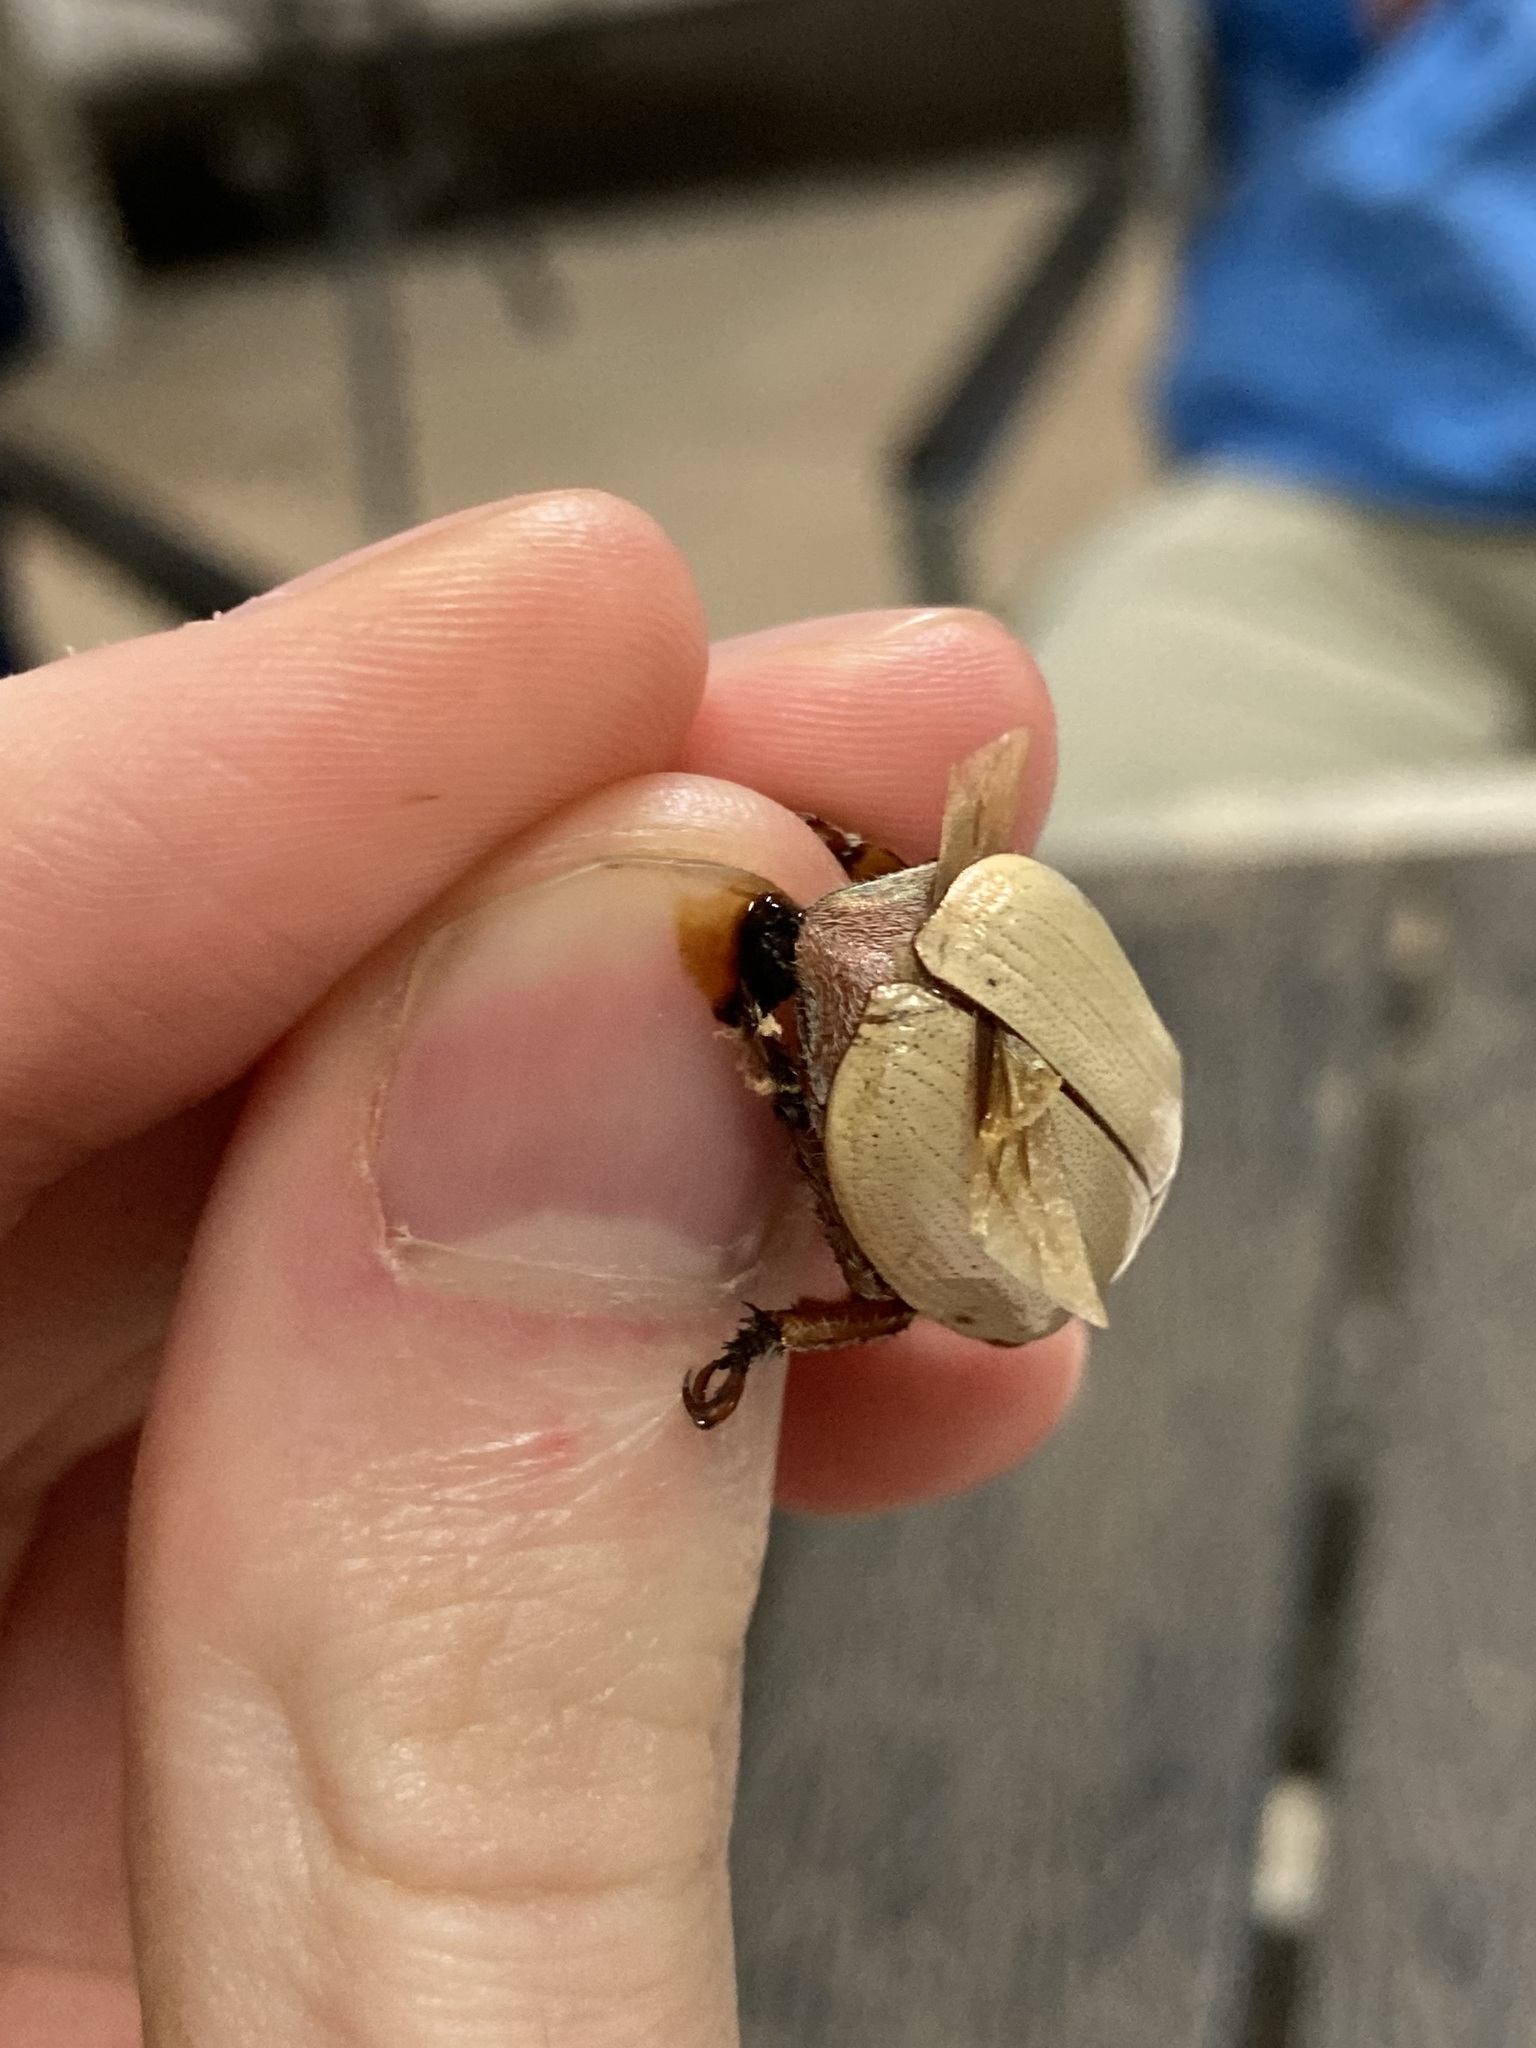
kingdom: Animalia
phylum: Arthropoda
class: Insecta
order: Coleoptera
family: Scarabaeidae
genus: Anoplognathus
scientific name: Anoplognathus macleayi
